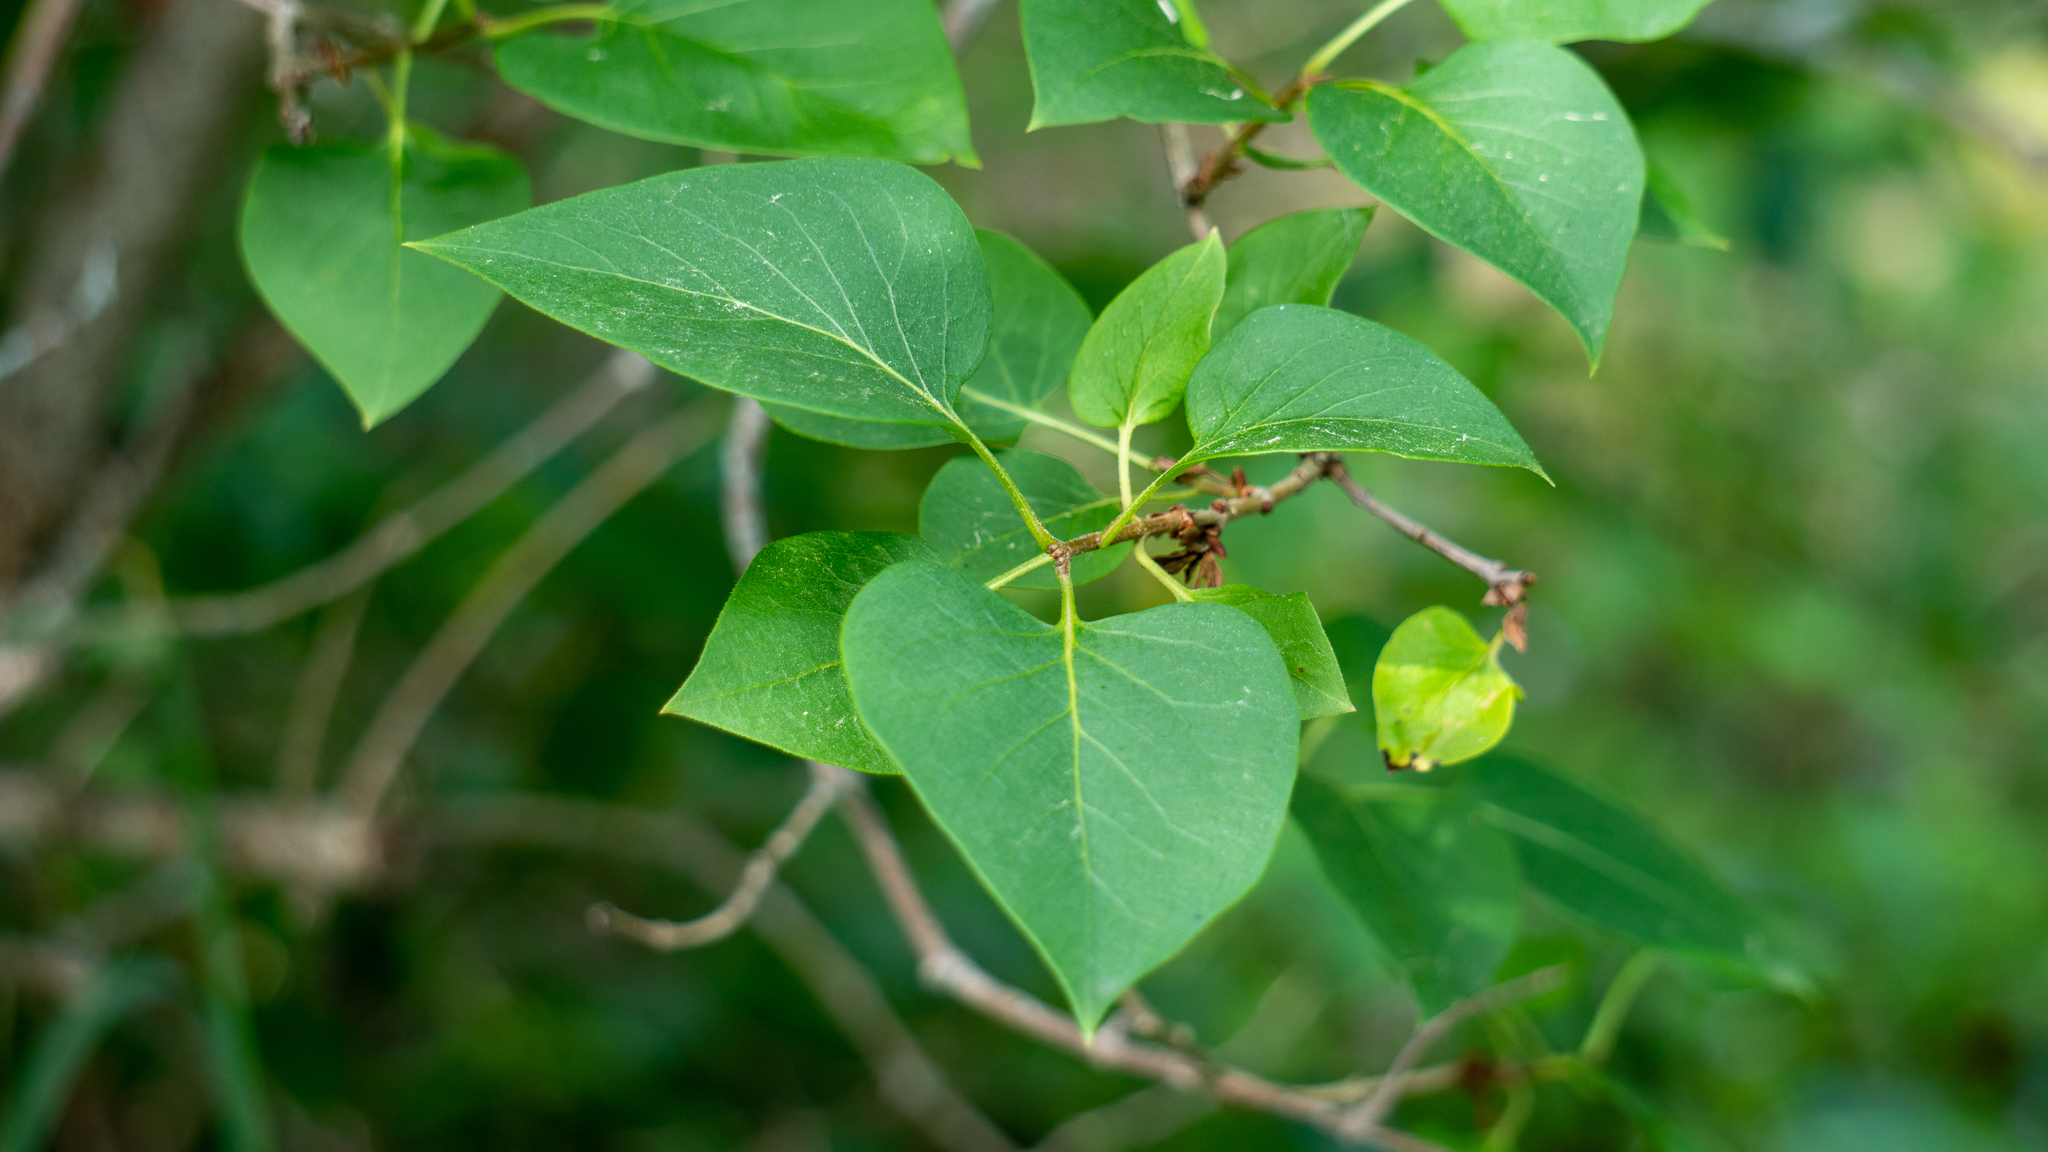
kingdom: Plantae
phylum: Tracheophyta
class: Magnoliopsida
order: Lamiales
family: Oleaceae
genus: Syringa
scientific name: Syringa vulgaris
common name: Common lilac
